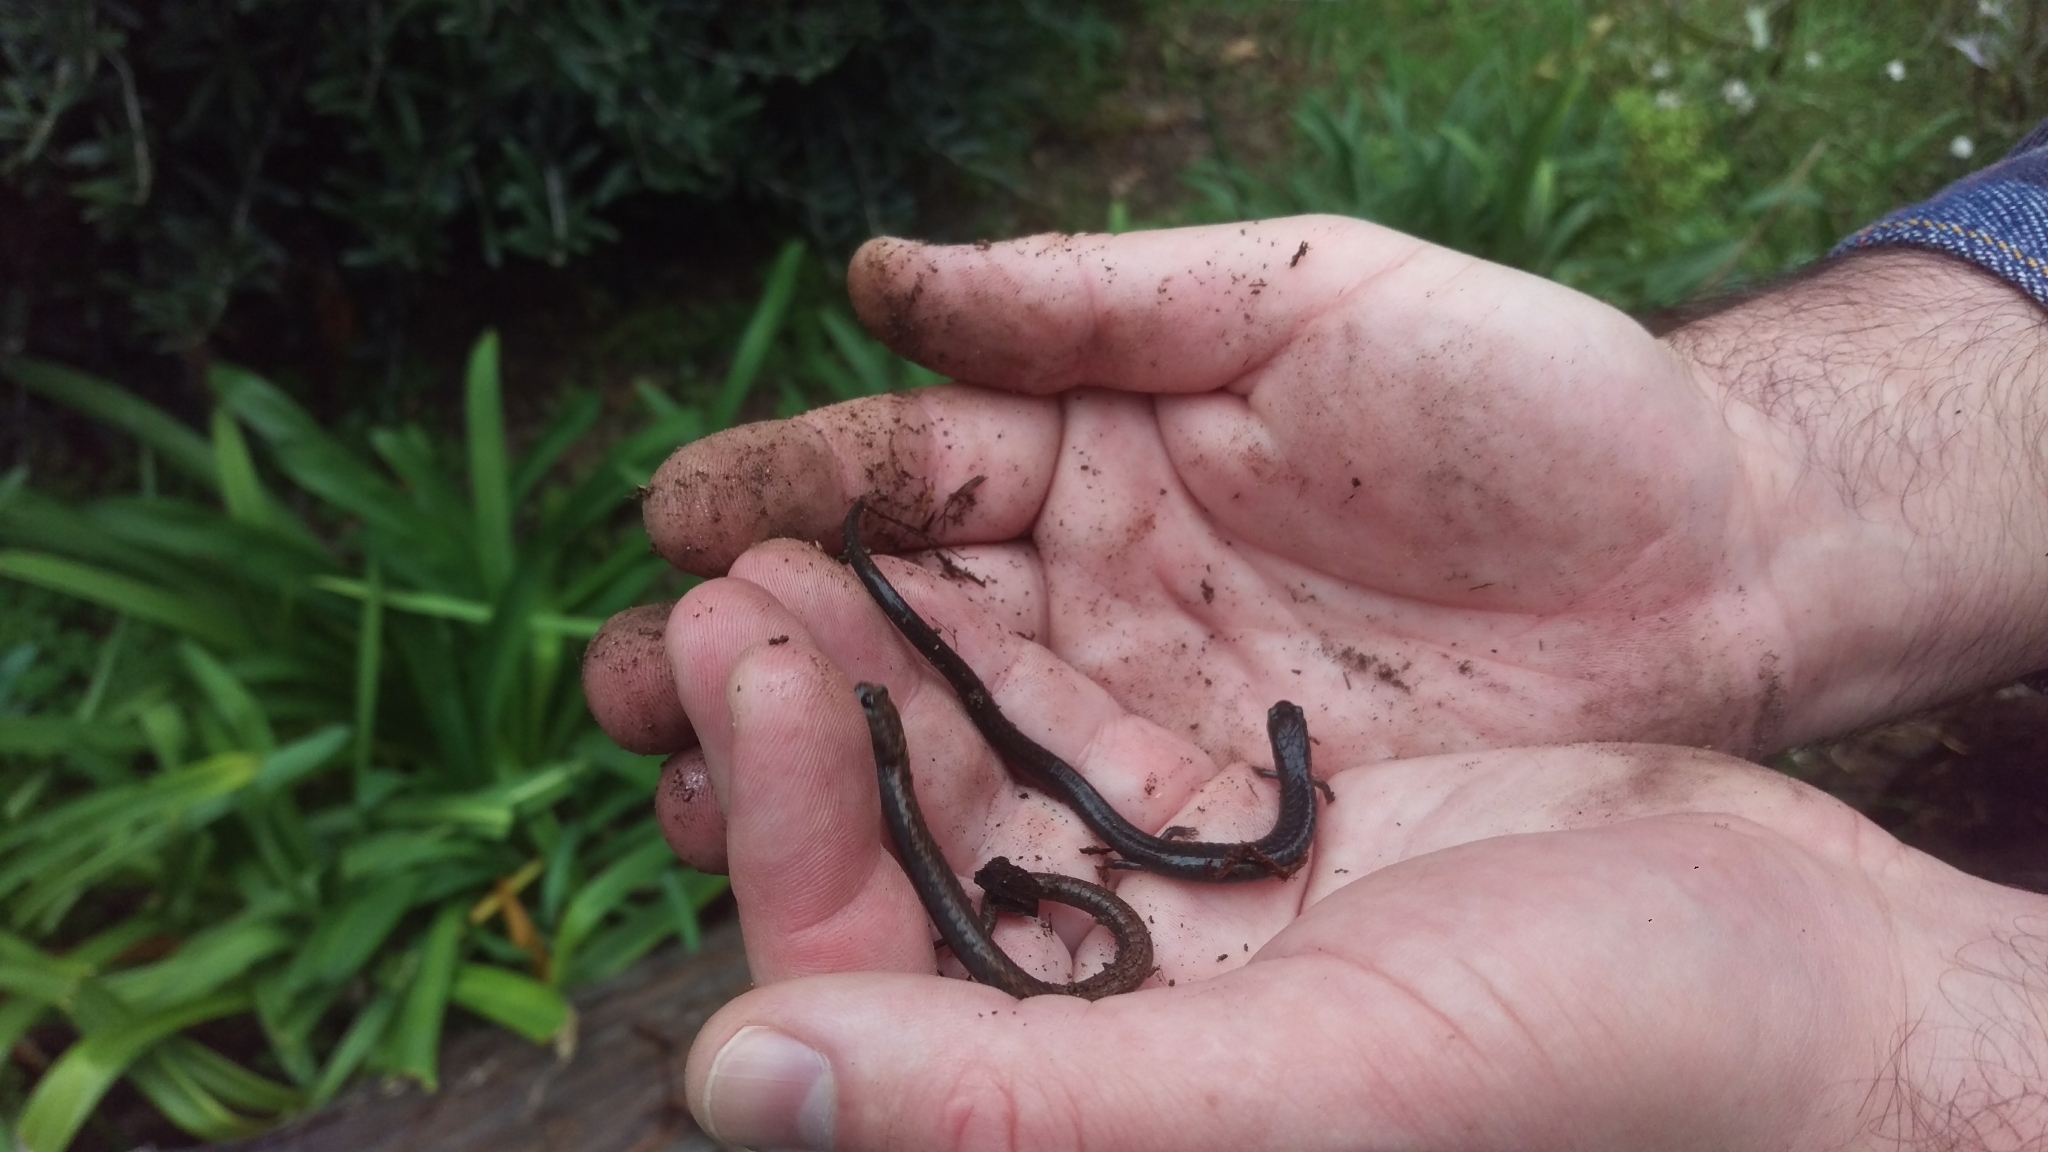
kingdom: Animalia
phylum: Chordata
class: Amphibia
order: Caudata
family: Plethodontidae
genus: Batrachoseps
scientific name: Batrachoseps attenuatus
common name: California slender salamander
